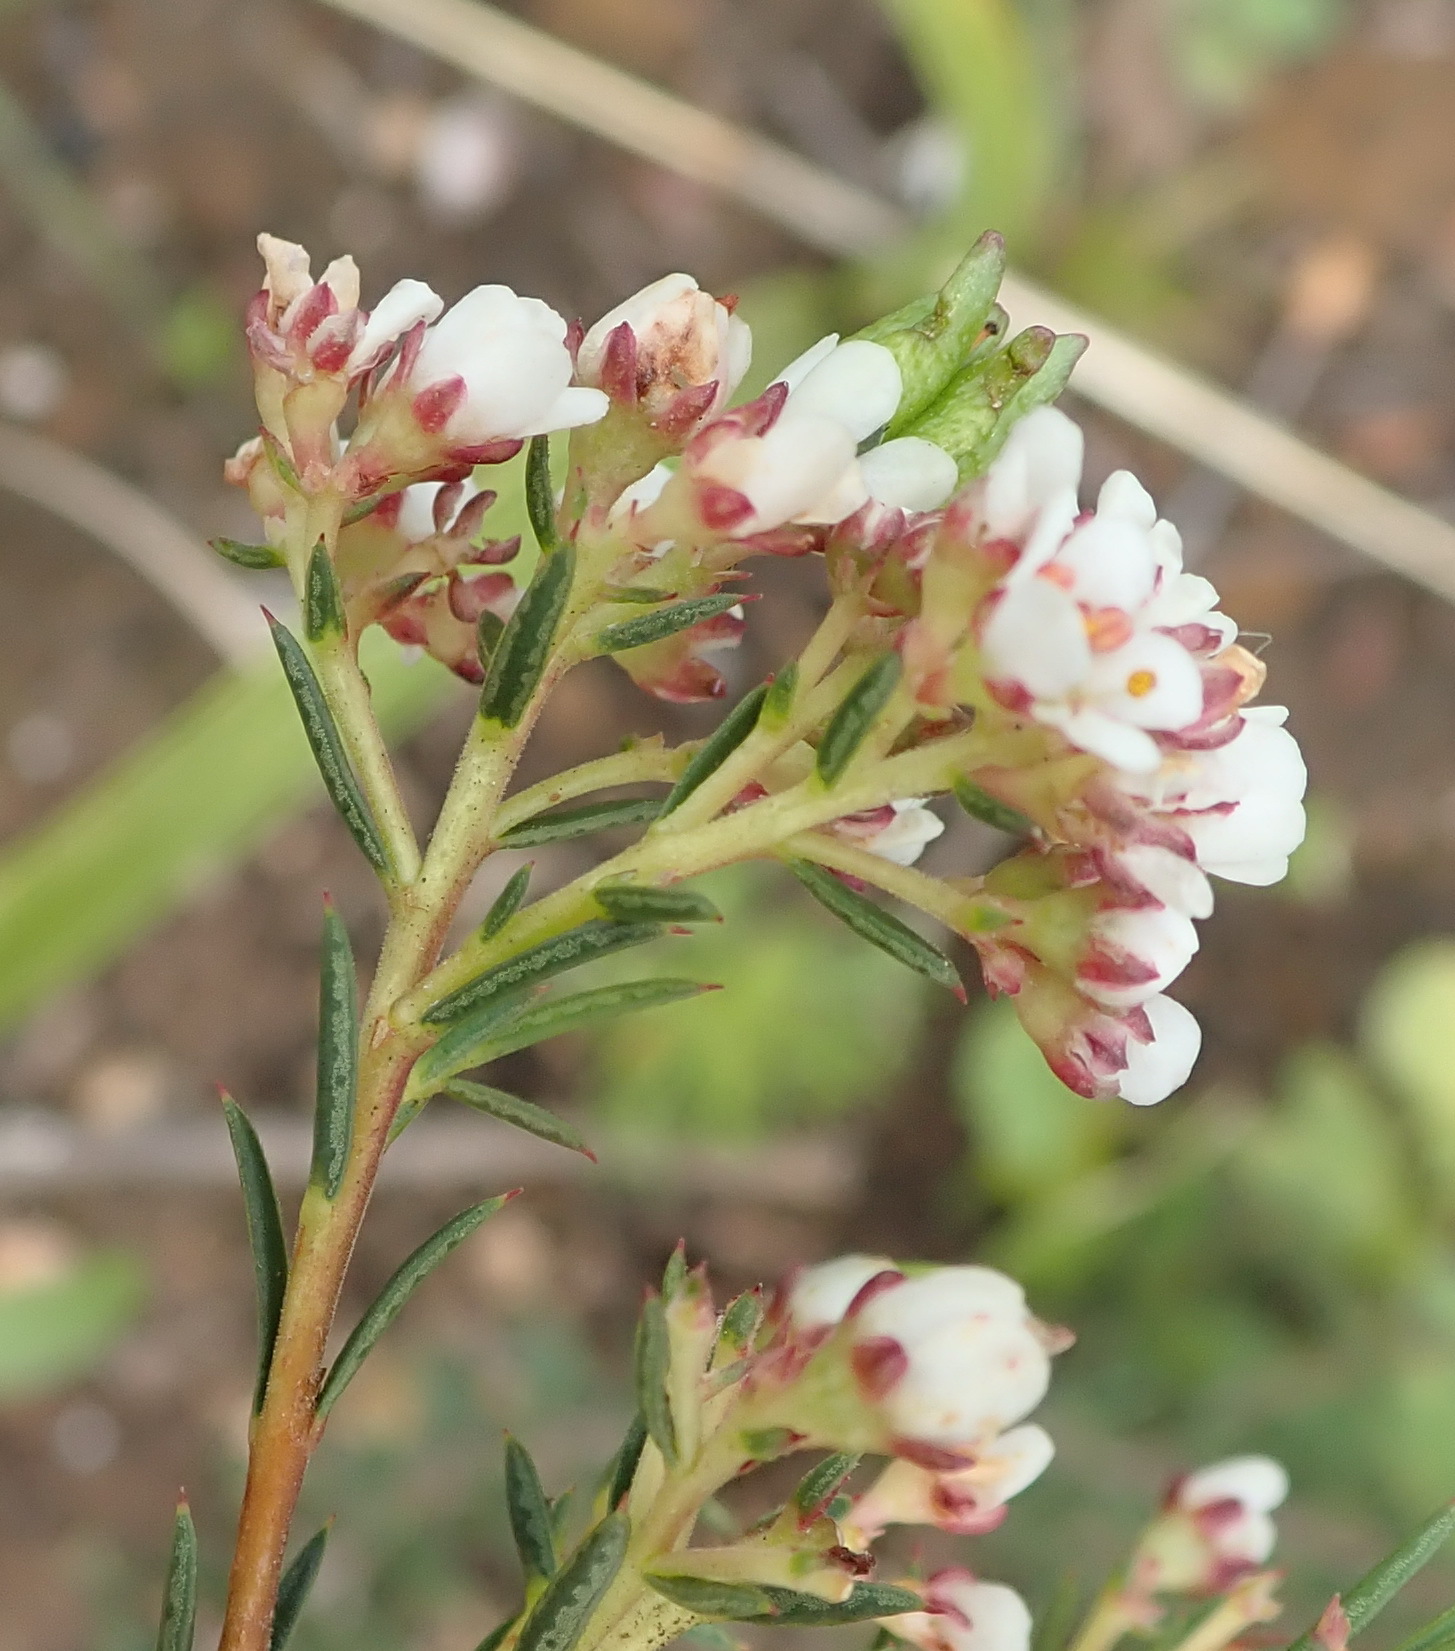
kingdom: Plantae
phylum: Tracheophyta
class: Magnoliopsida
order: Sapindales
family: Rutaceae
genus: Diosma
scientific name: Diosma hirsuta
